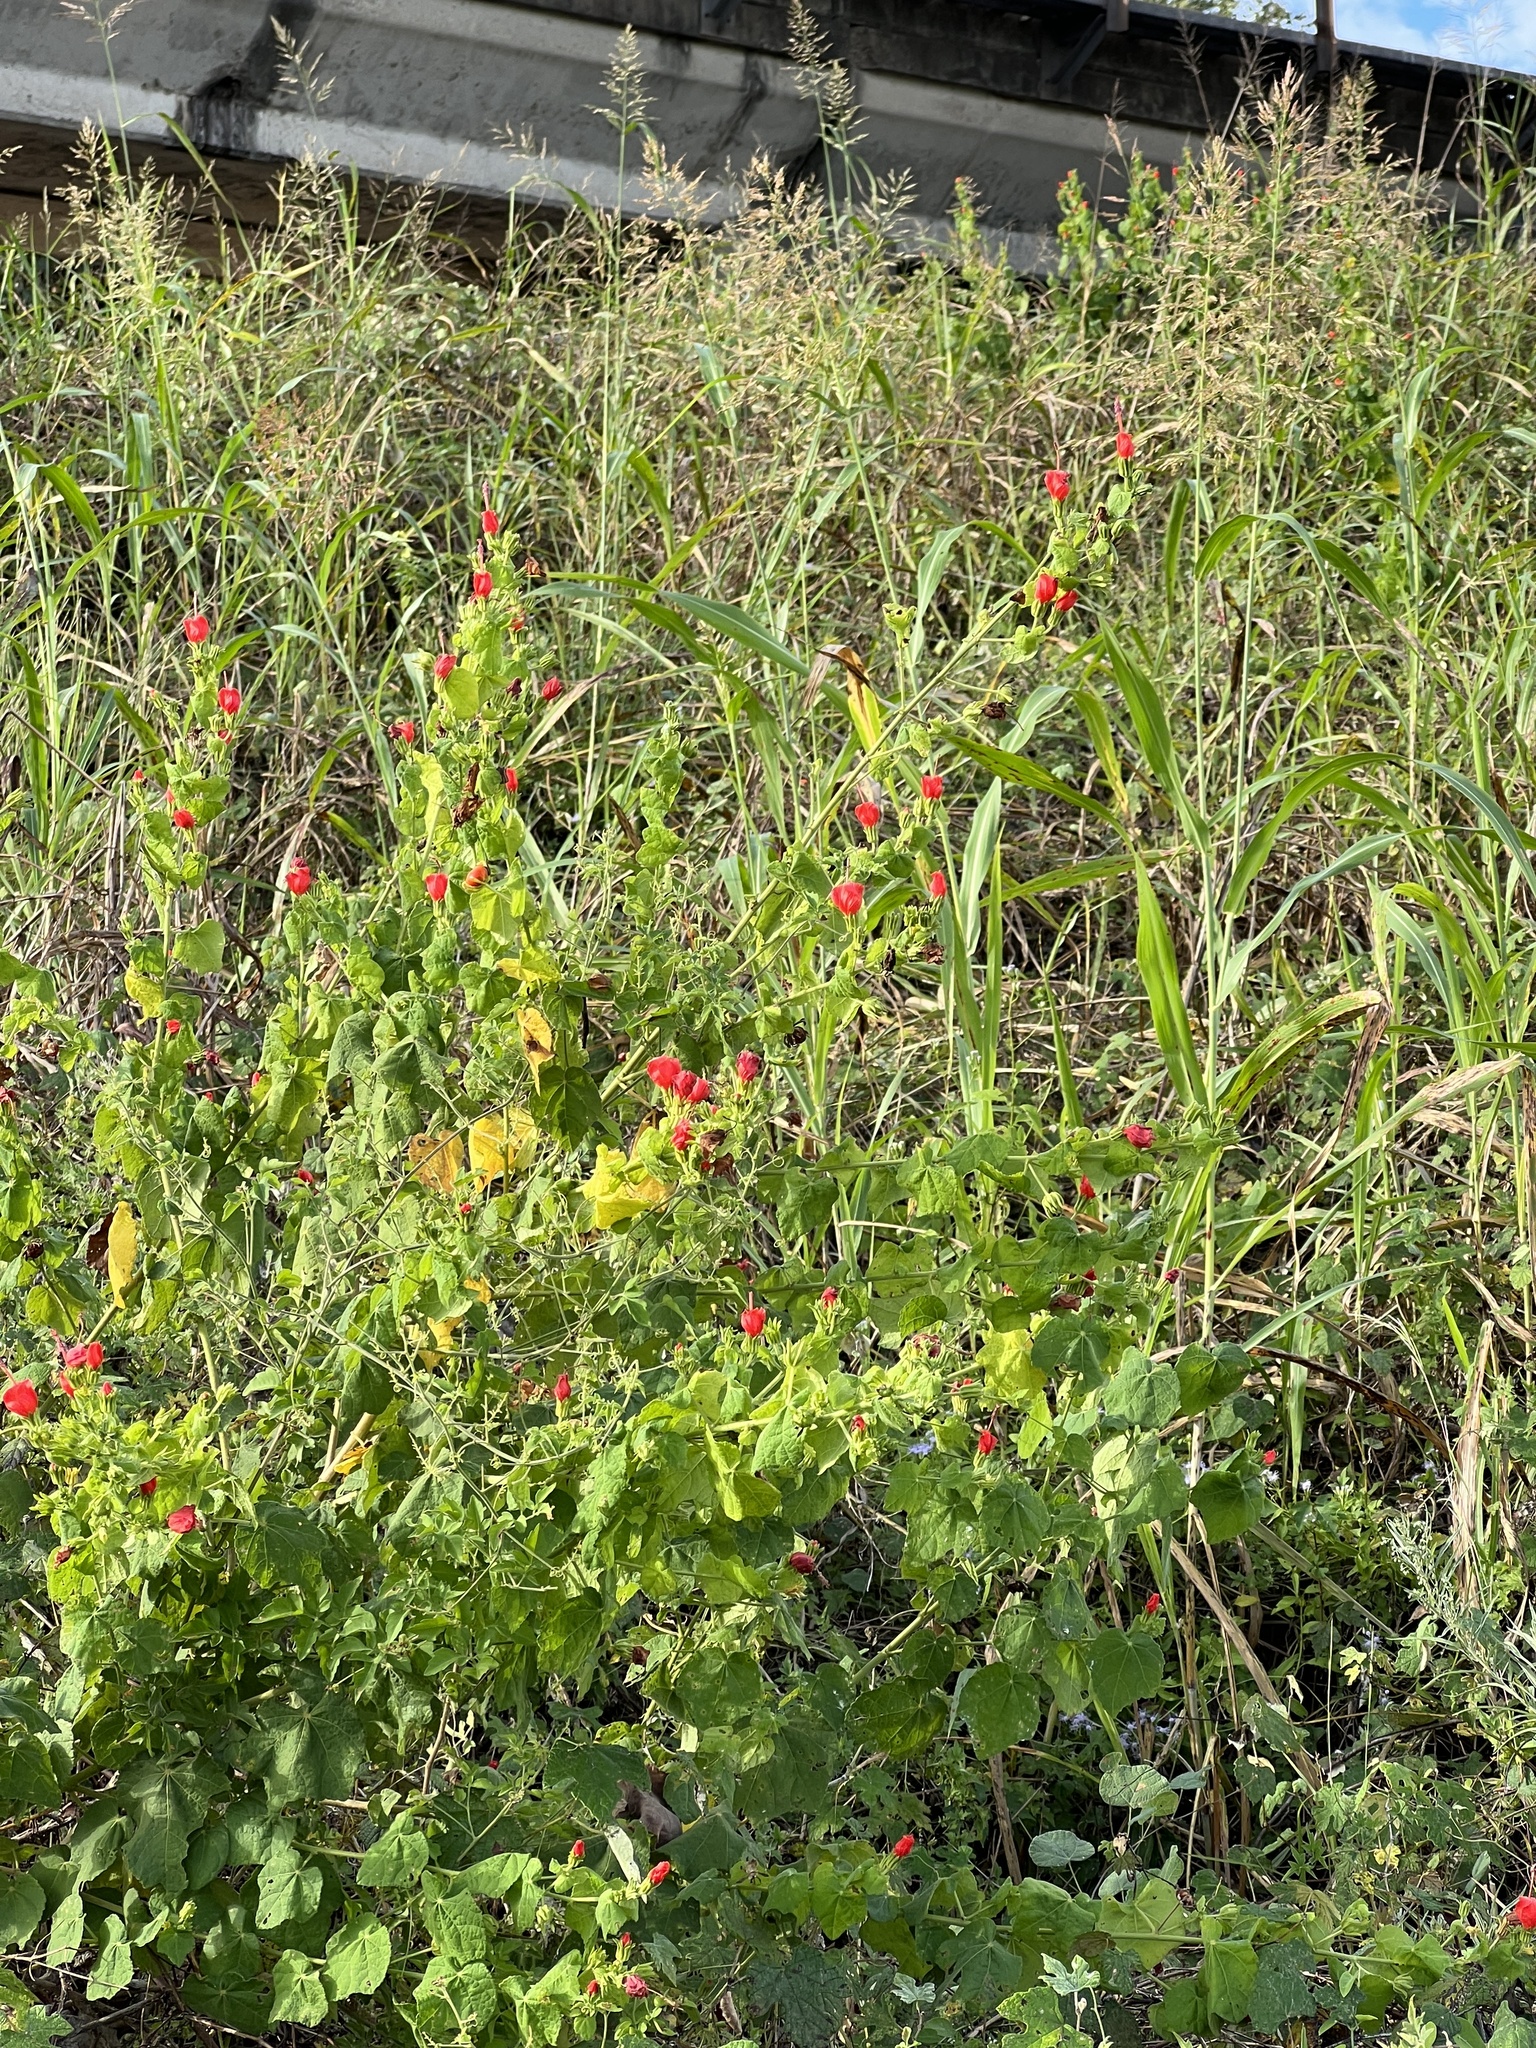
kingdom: Plantae
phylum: Tracheophyta
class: Magnoliopsida
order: Malvales
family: Malvaceae
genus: Malvaviscus
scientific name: Malvaviscus arboreus
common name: Wax mallow
